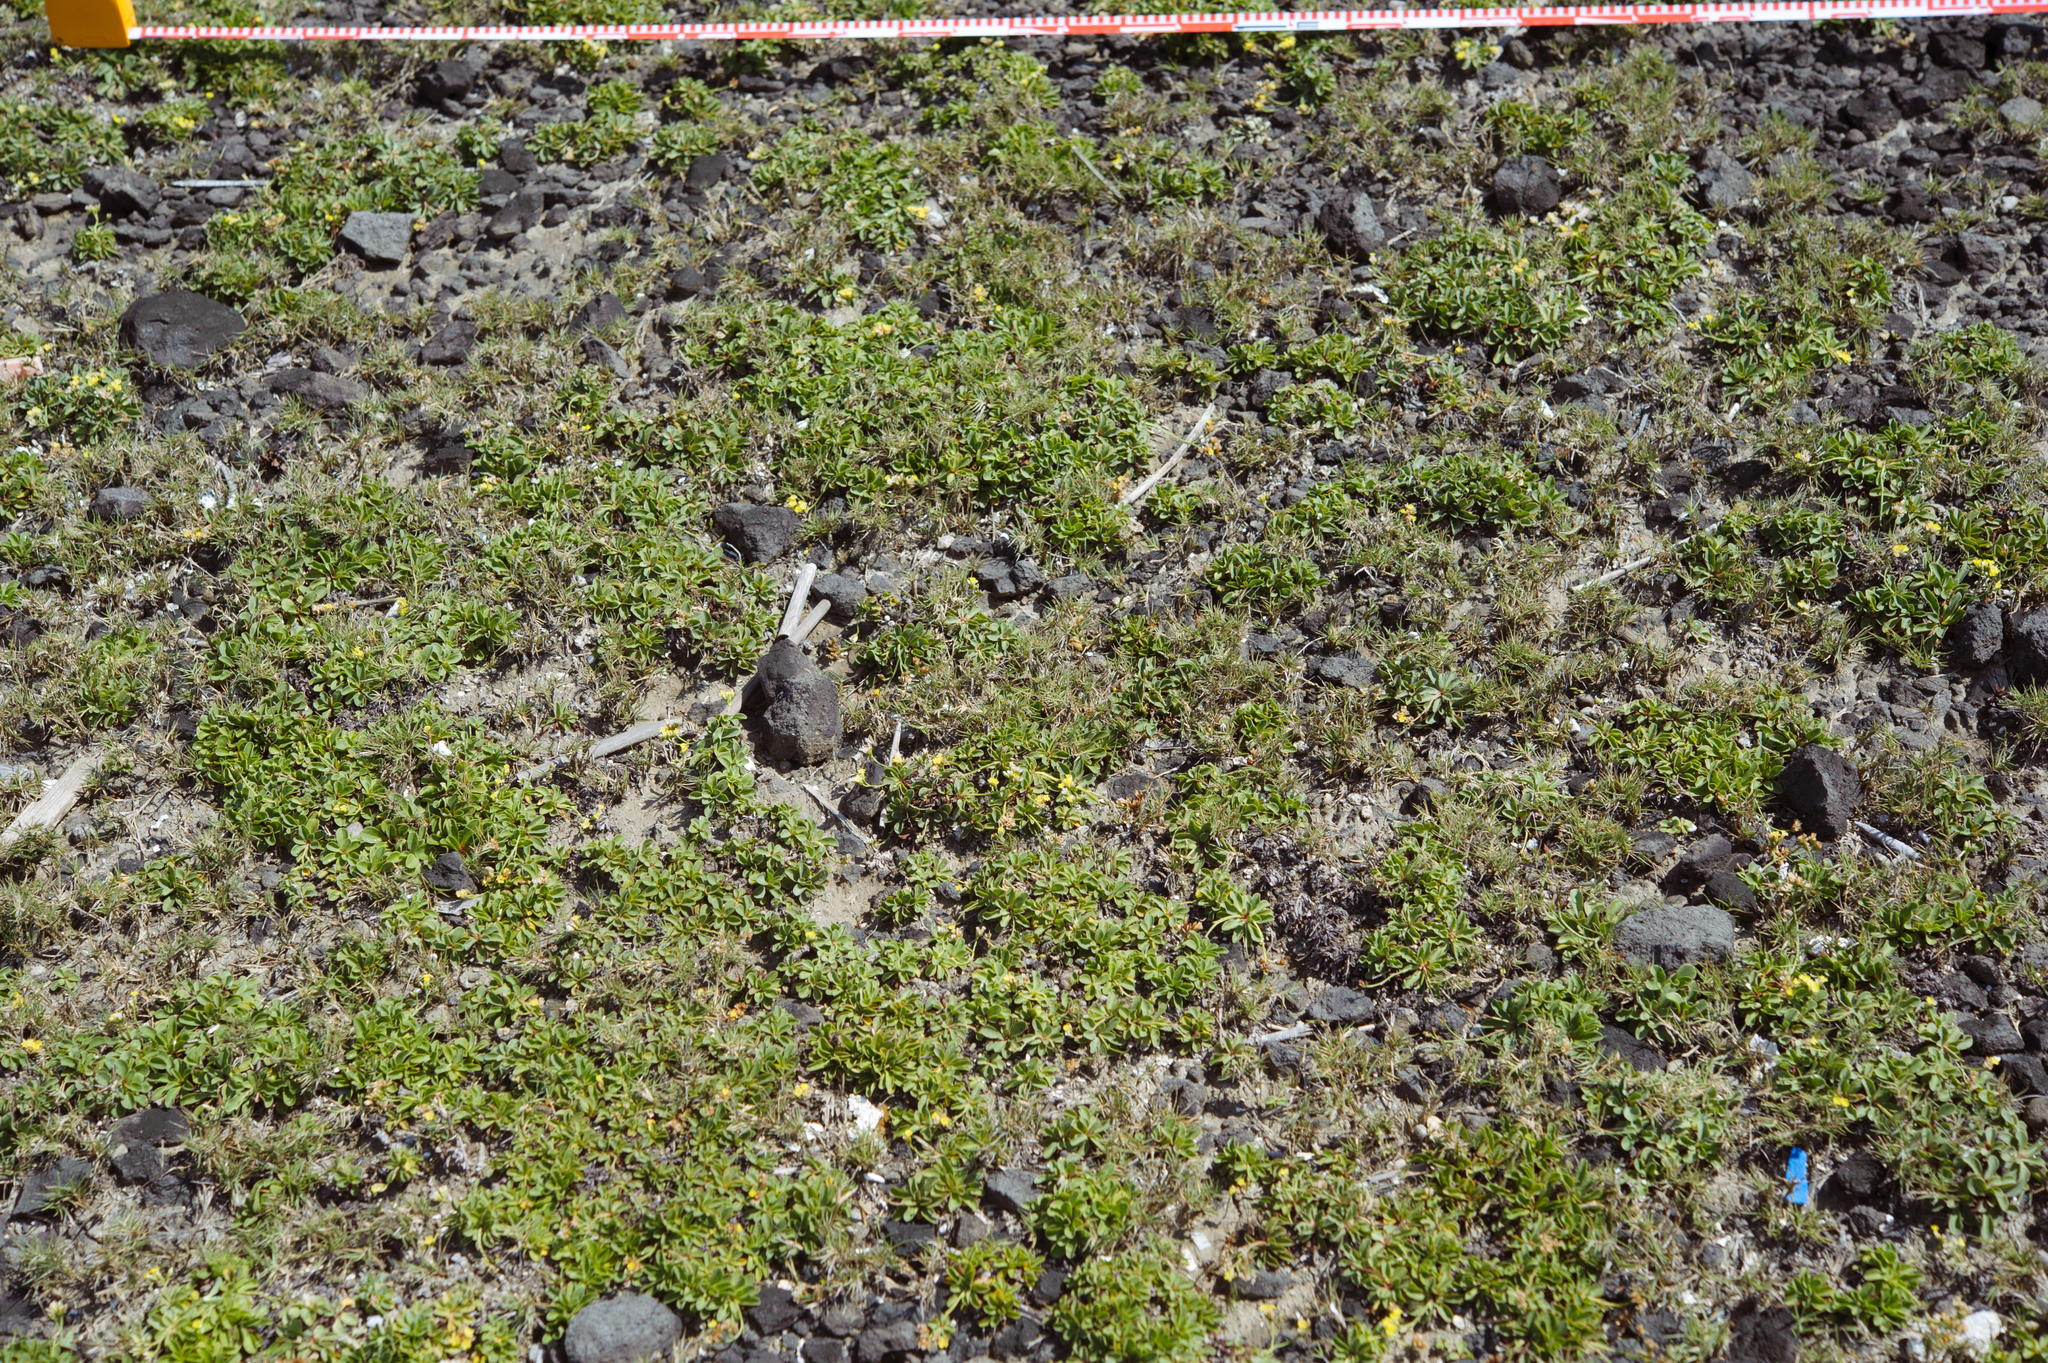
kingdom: Plantae
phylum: Tracheophyta
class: Magnoliopsida
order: Caryophyllales
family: Plumbaginaceae
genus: Limonium
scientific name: Limonium sinense
